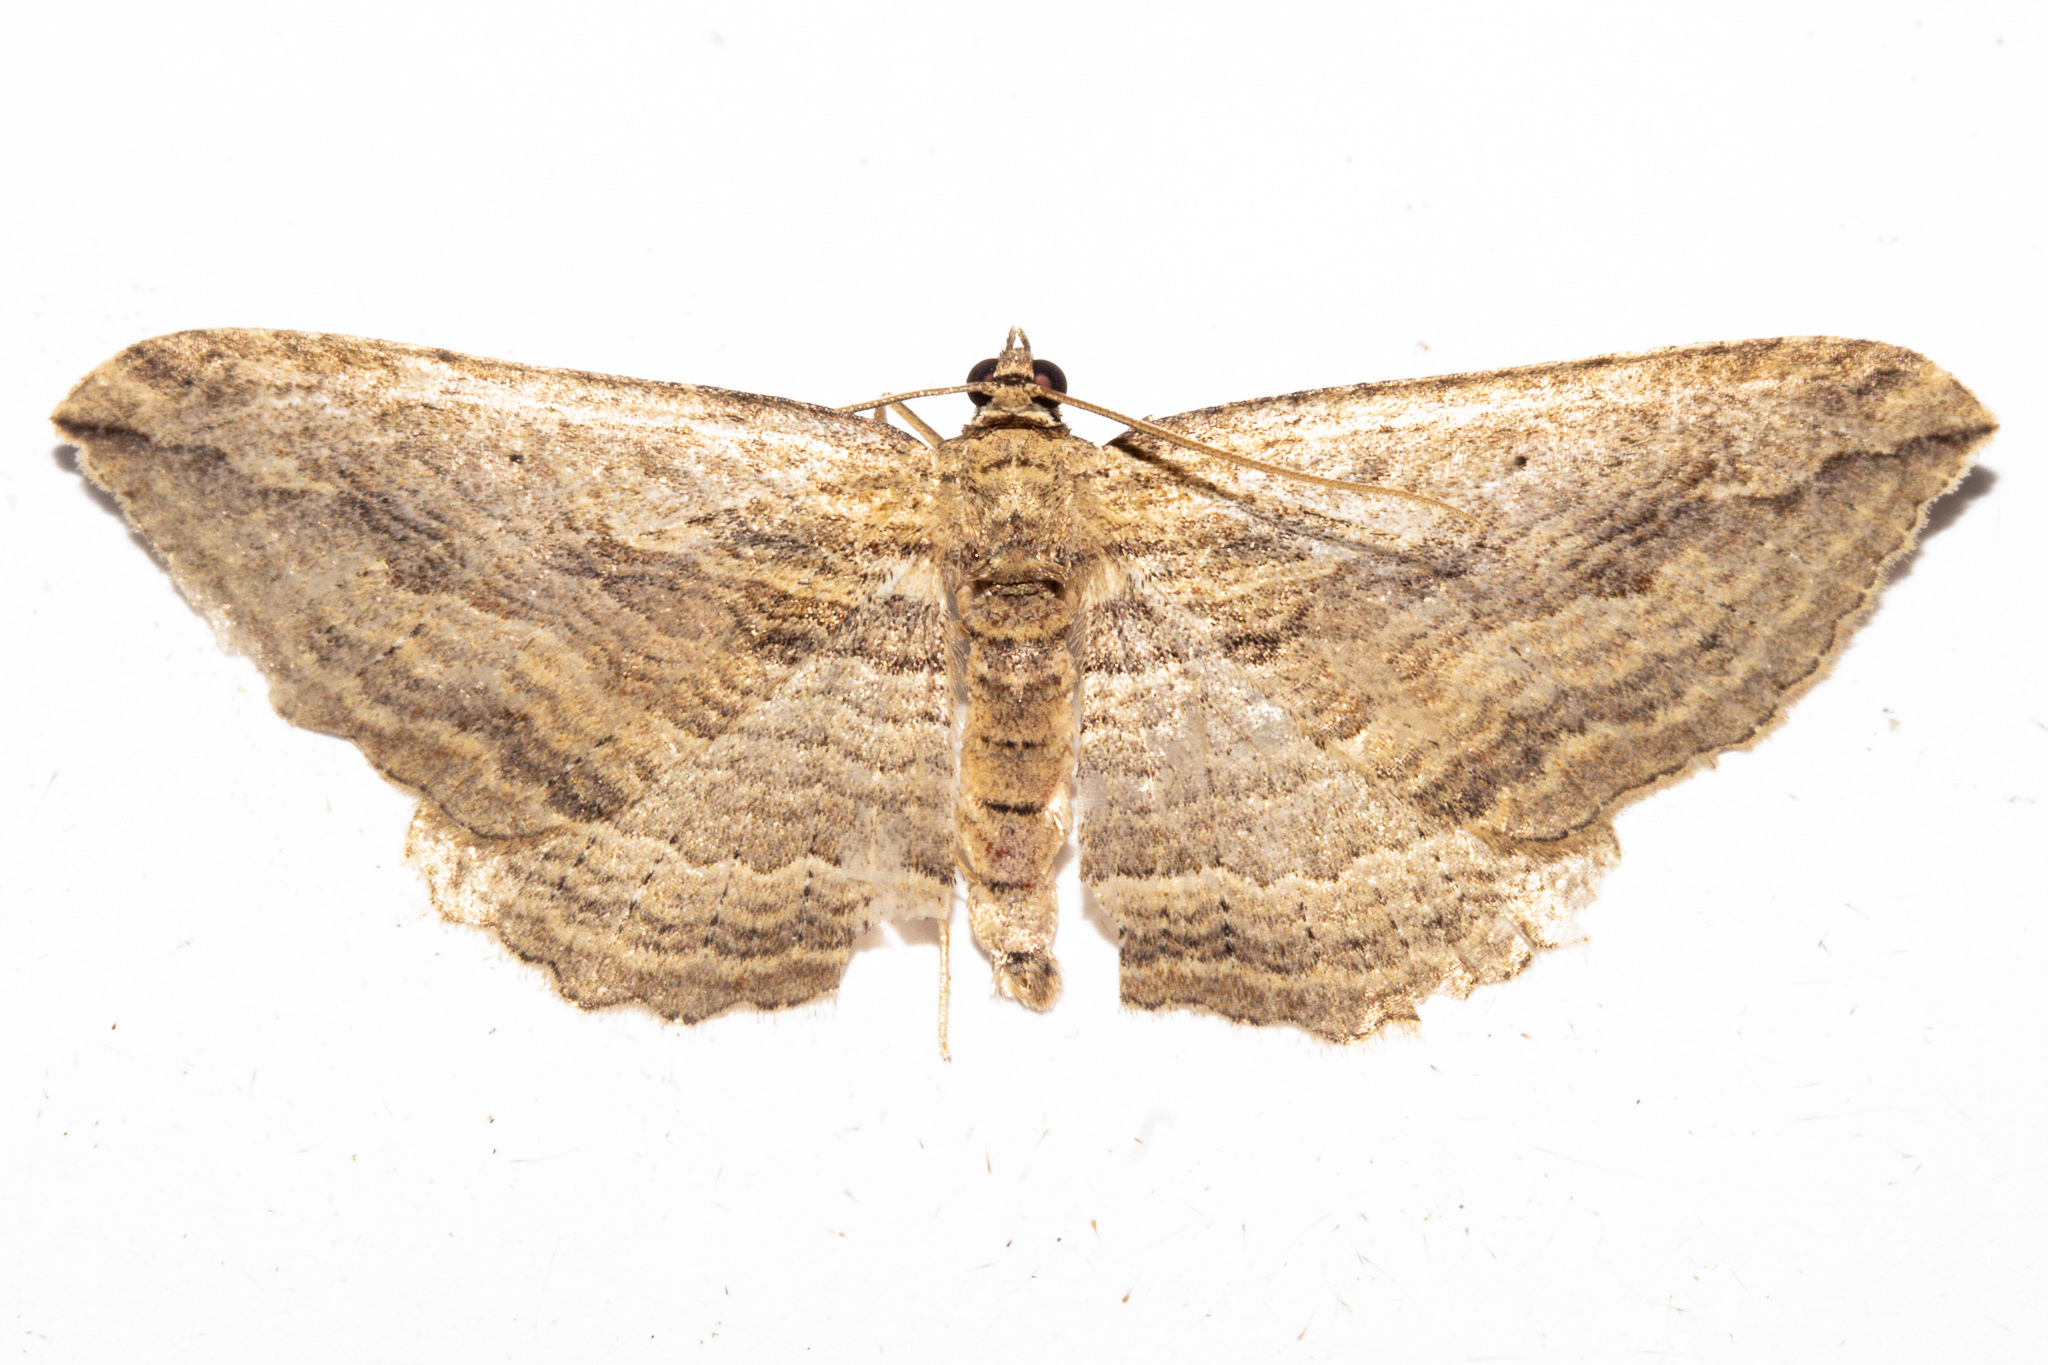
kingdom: Animalia
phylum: Arthropoda
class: Insecta
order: Lepidoptera
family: Geometridae
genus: Austrocidaria
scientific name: Austrocidaria gobiata
